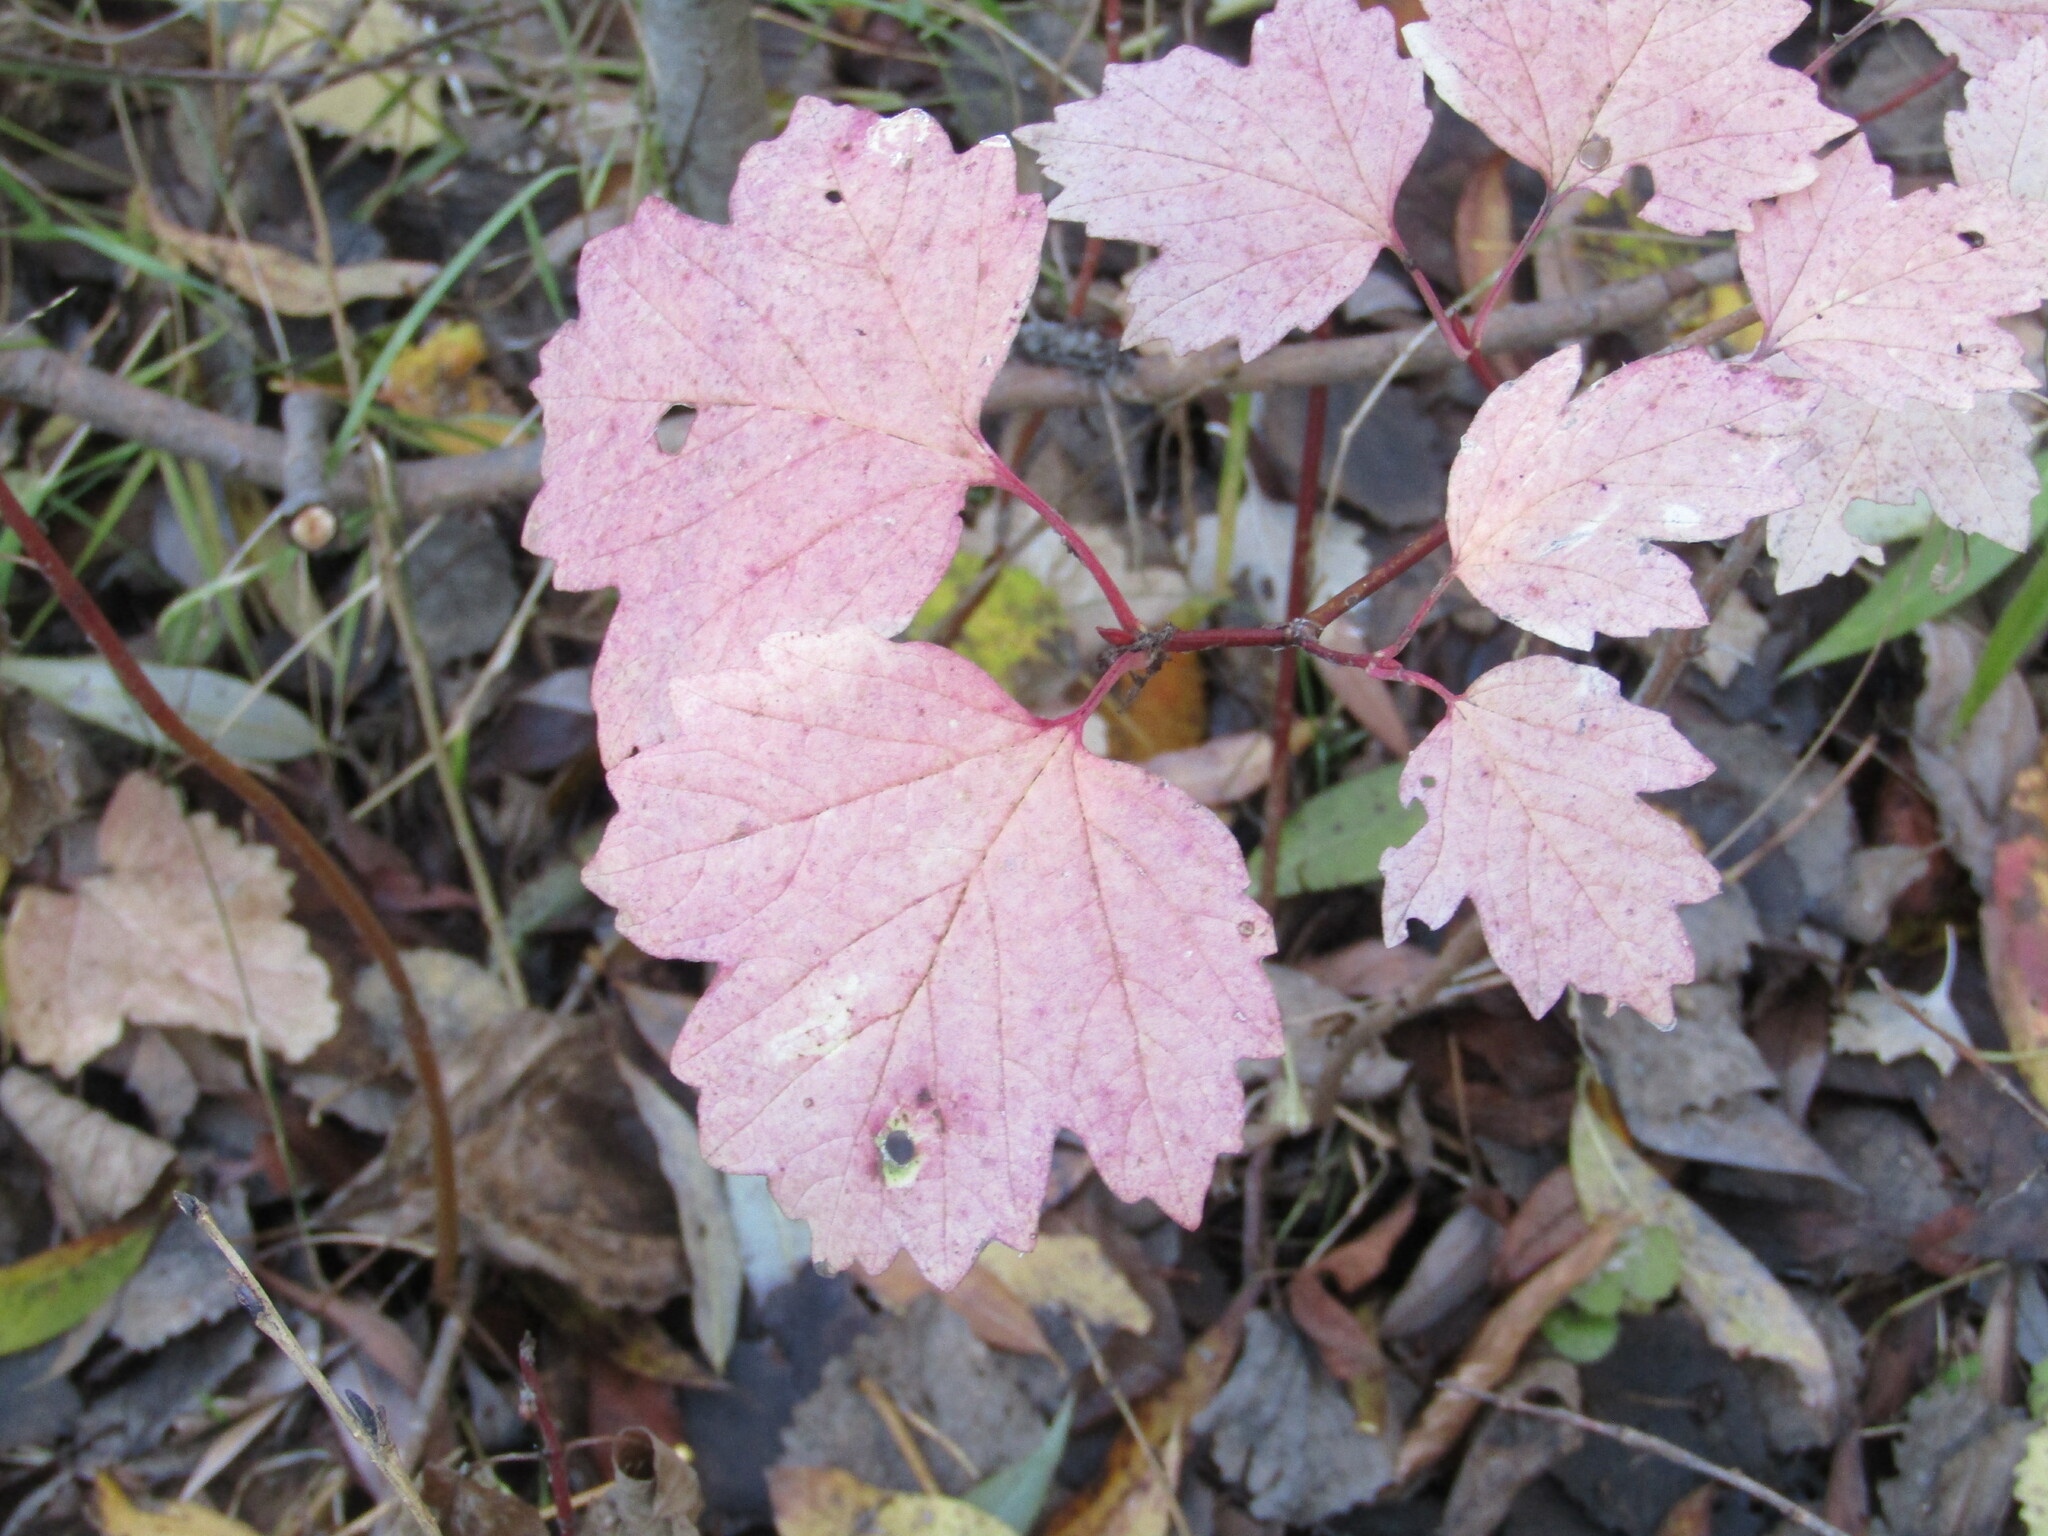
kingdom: Plantae
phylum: Tracheophyta
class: Magnoliopsida
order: Dipsacales
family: Viburnaceae
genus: Viburnum
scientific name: Viburnum opulus
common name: Guelder-rose
